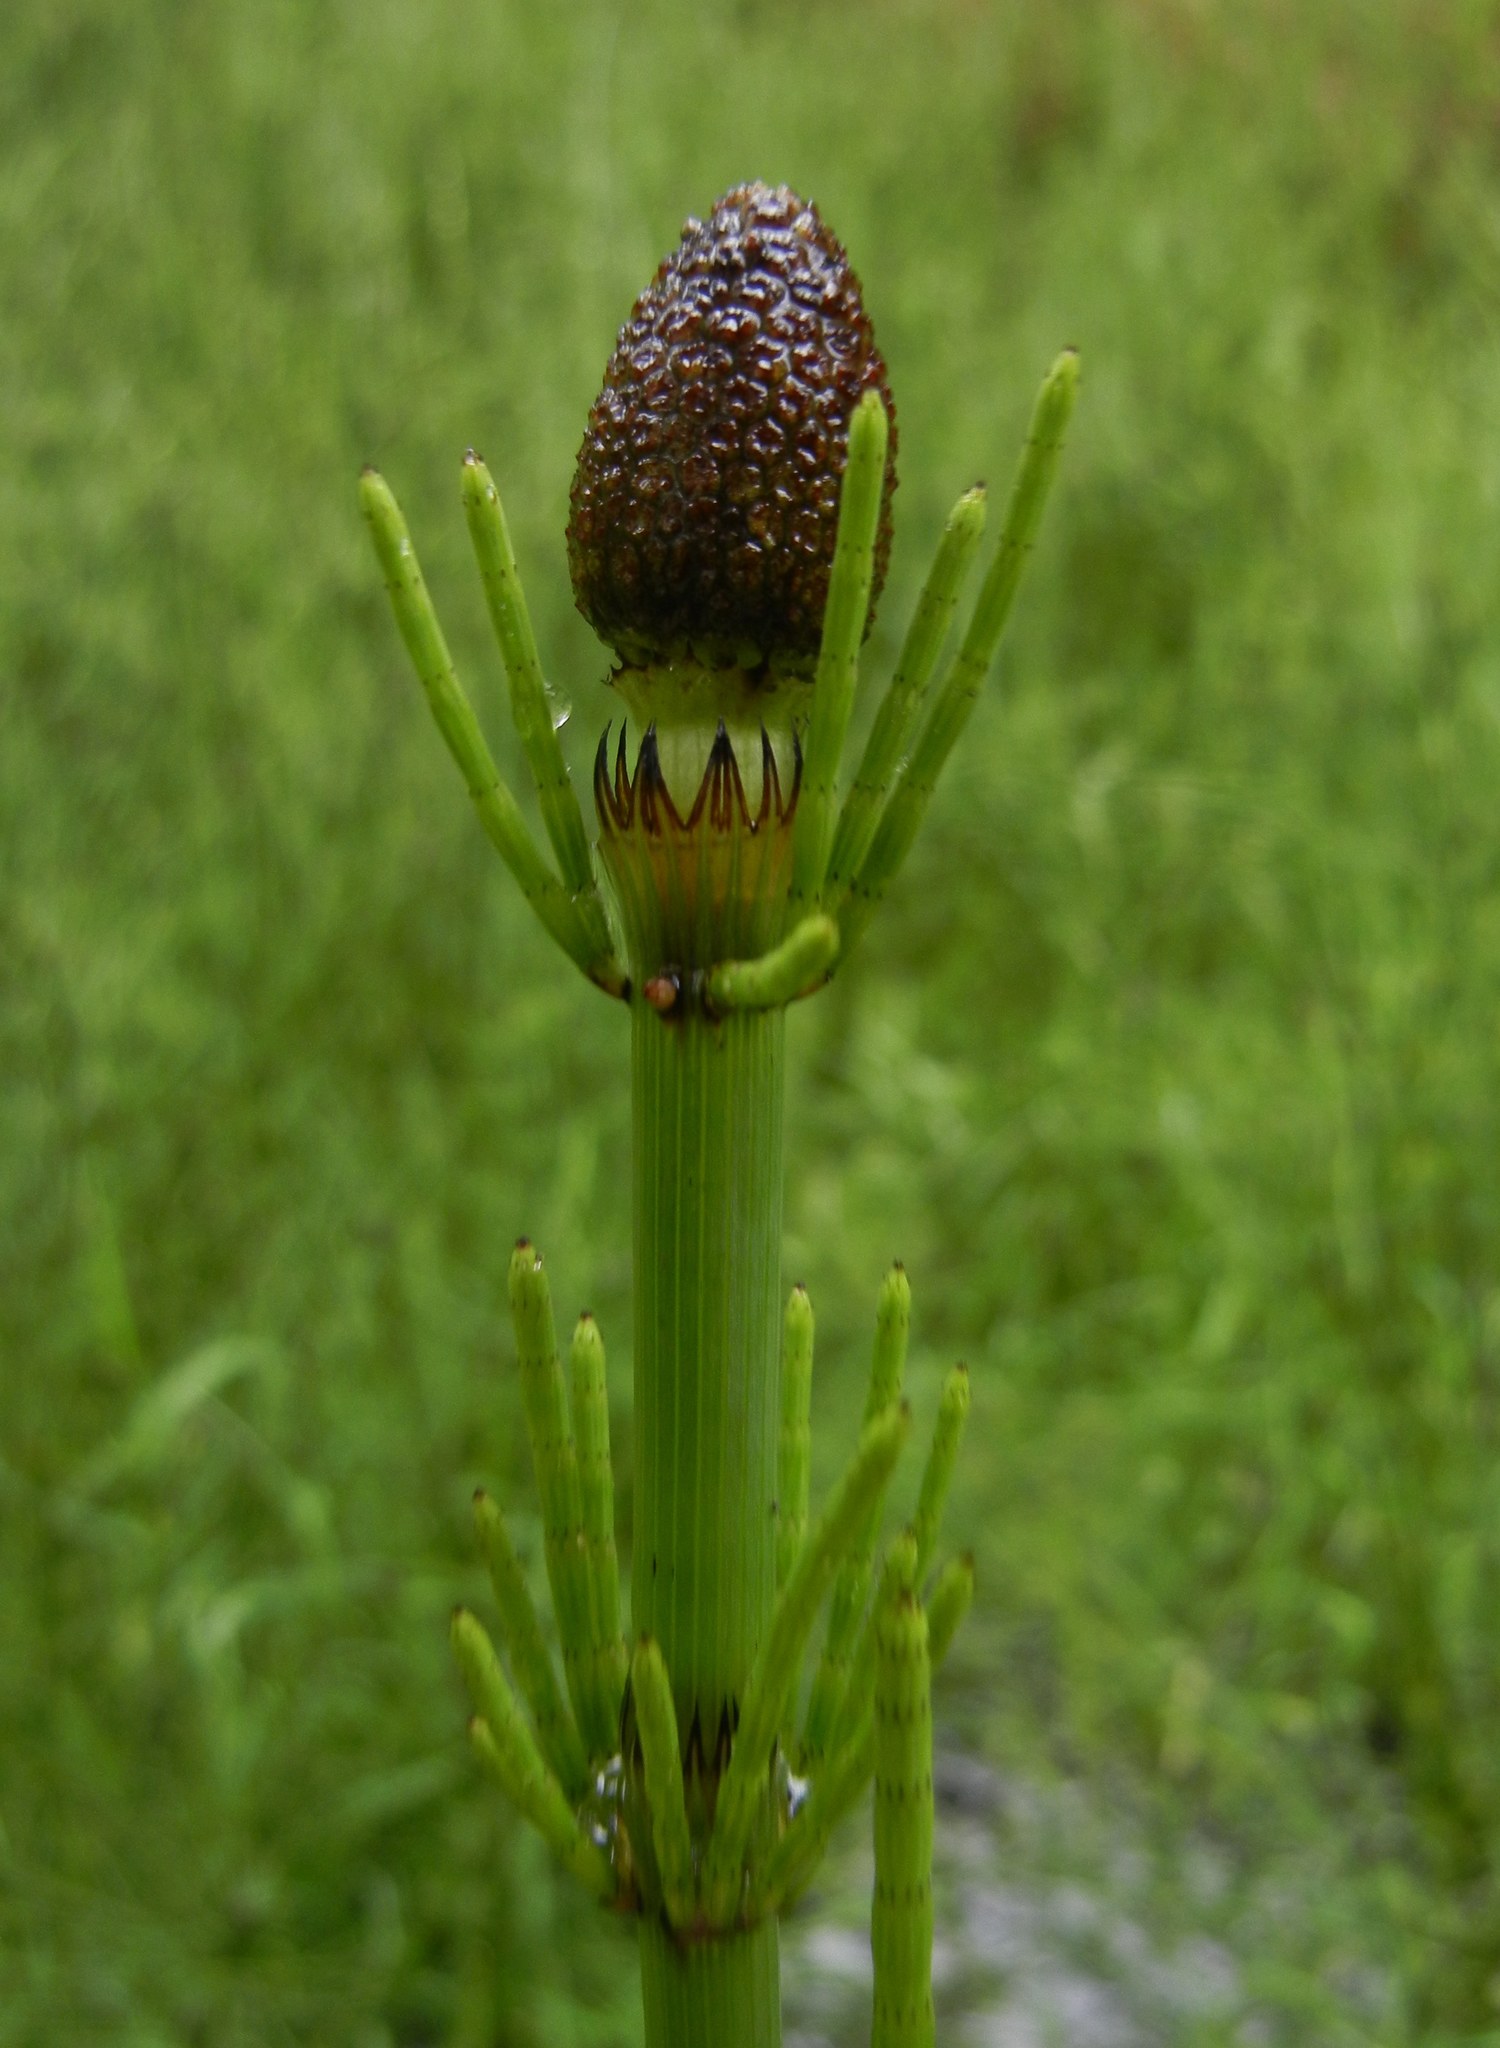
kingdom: Plantae
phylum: Tracheophyta
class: Polypodiopsida
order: Equisetales
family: Equisetaceae
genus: Equisetum
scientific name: Equisetum fluviatile
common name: Water horsetail
